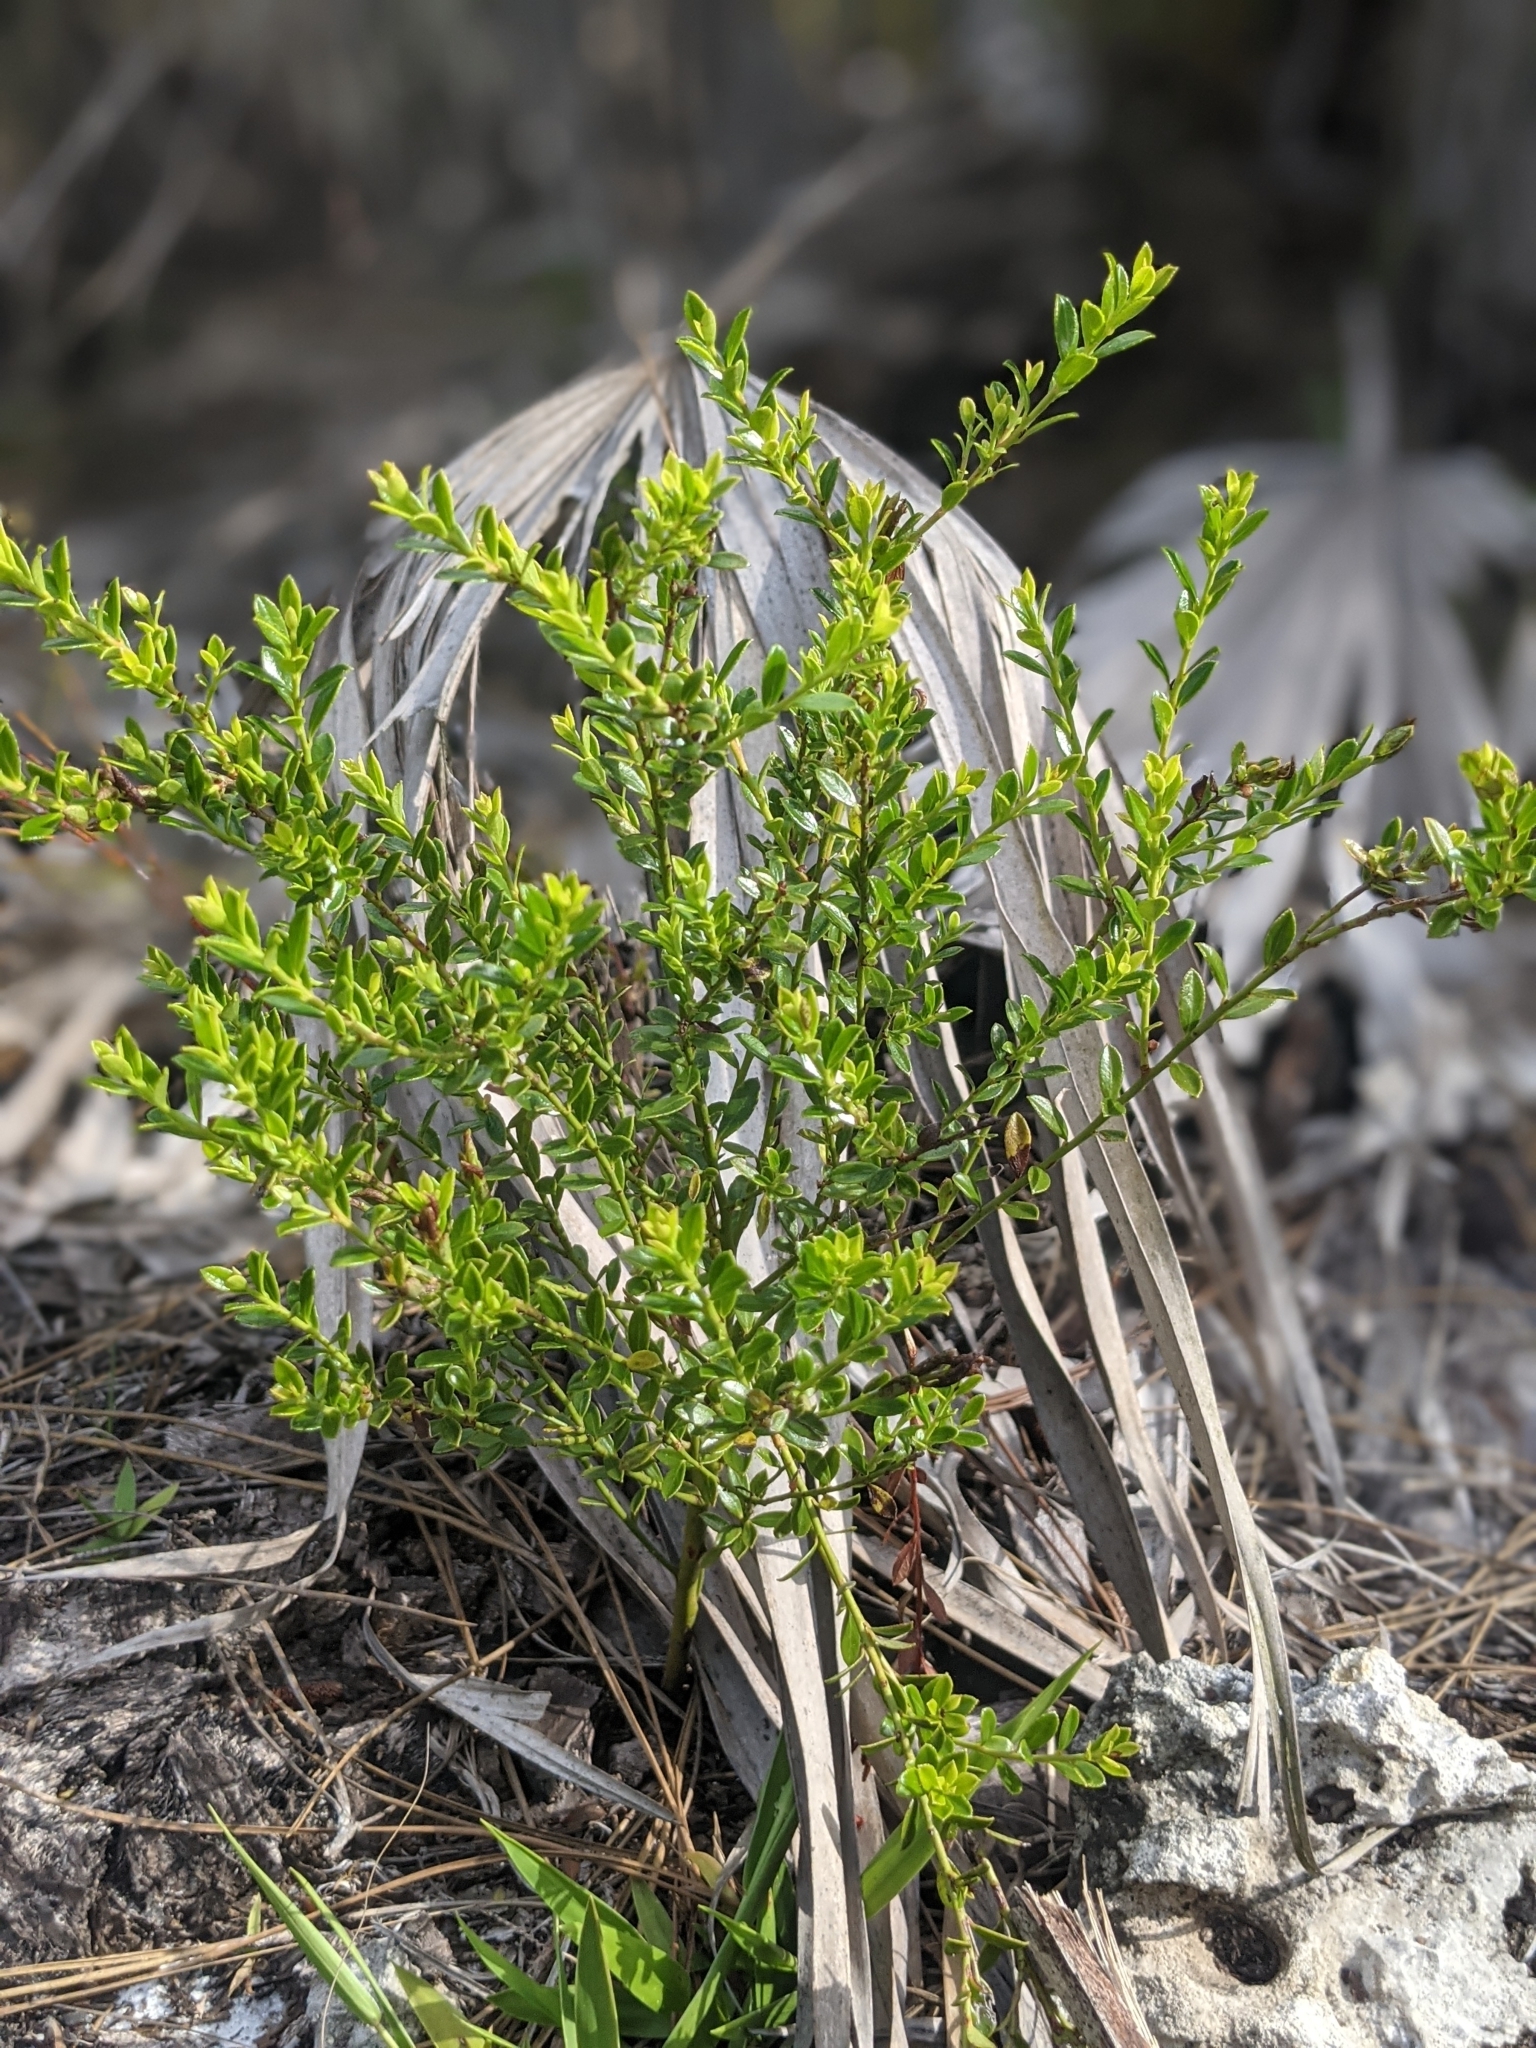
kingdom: Plantae
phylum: Tracheophyta
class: Magnoliopsida
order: Ericales
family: Ericaceae
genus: Vaccinium
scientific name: Vaccinium myrsinites
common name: Evergreen blueberry
